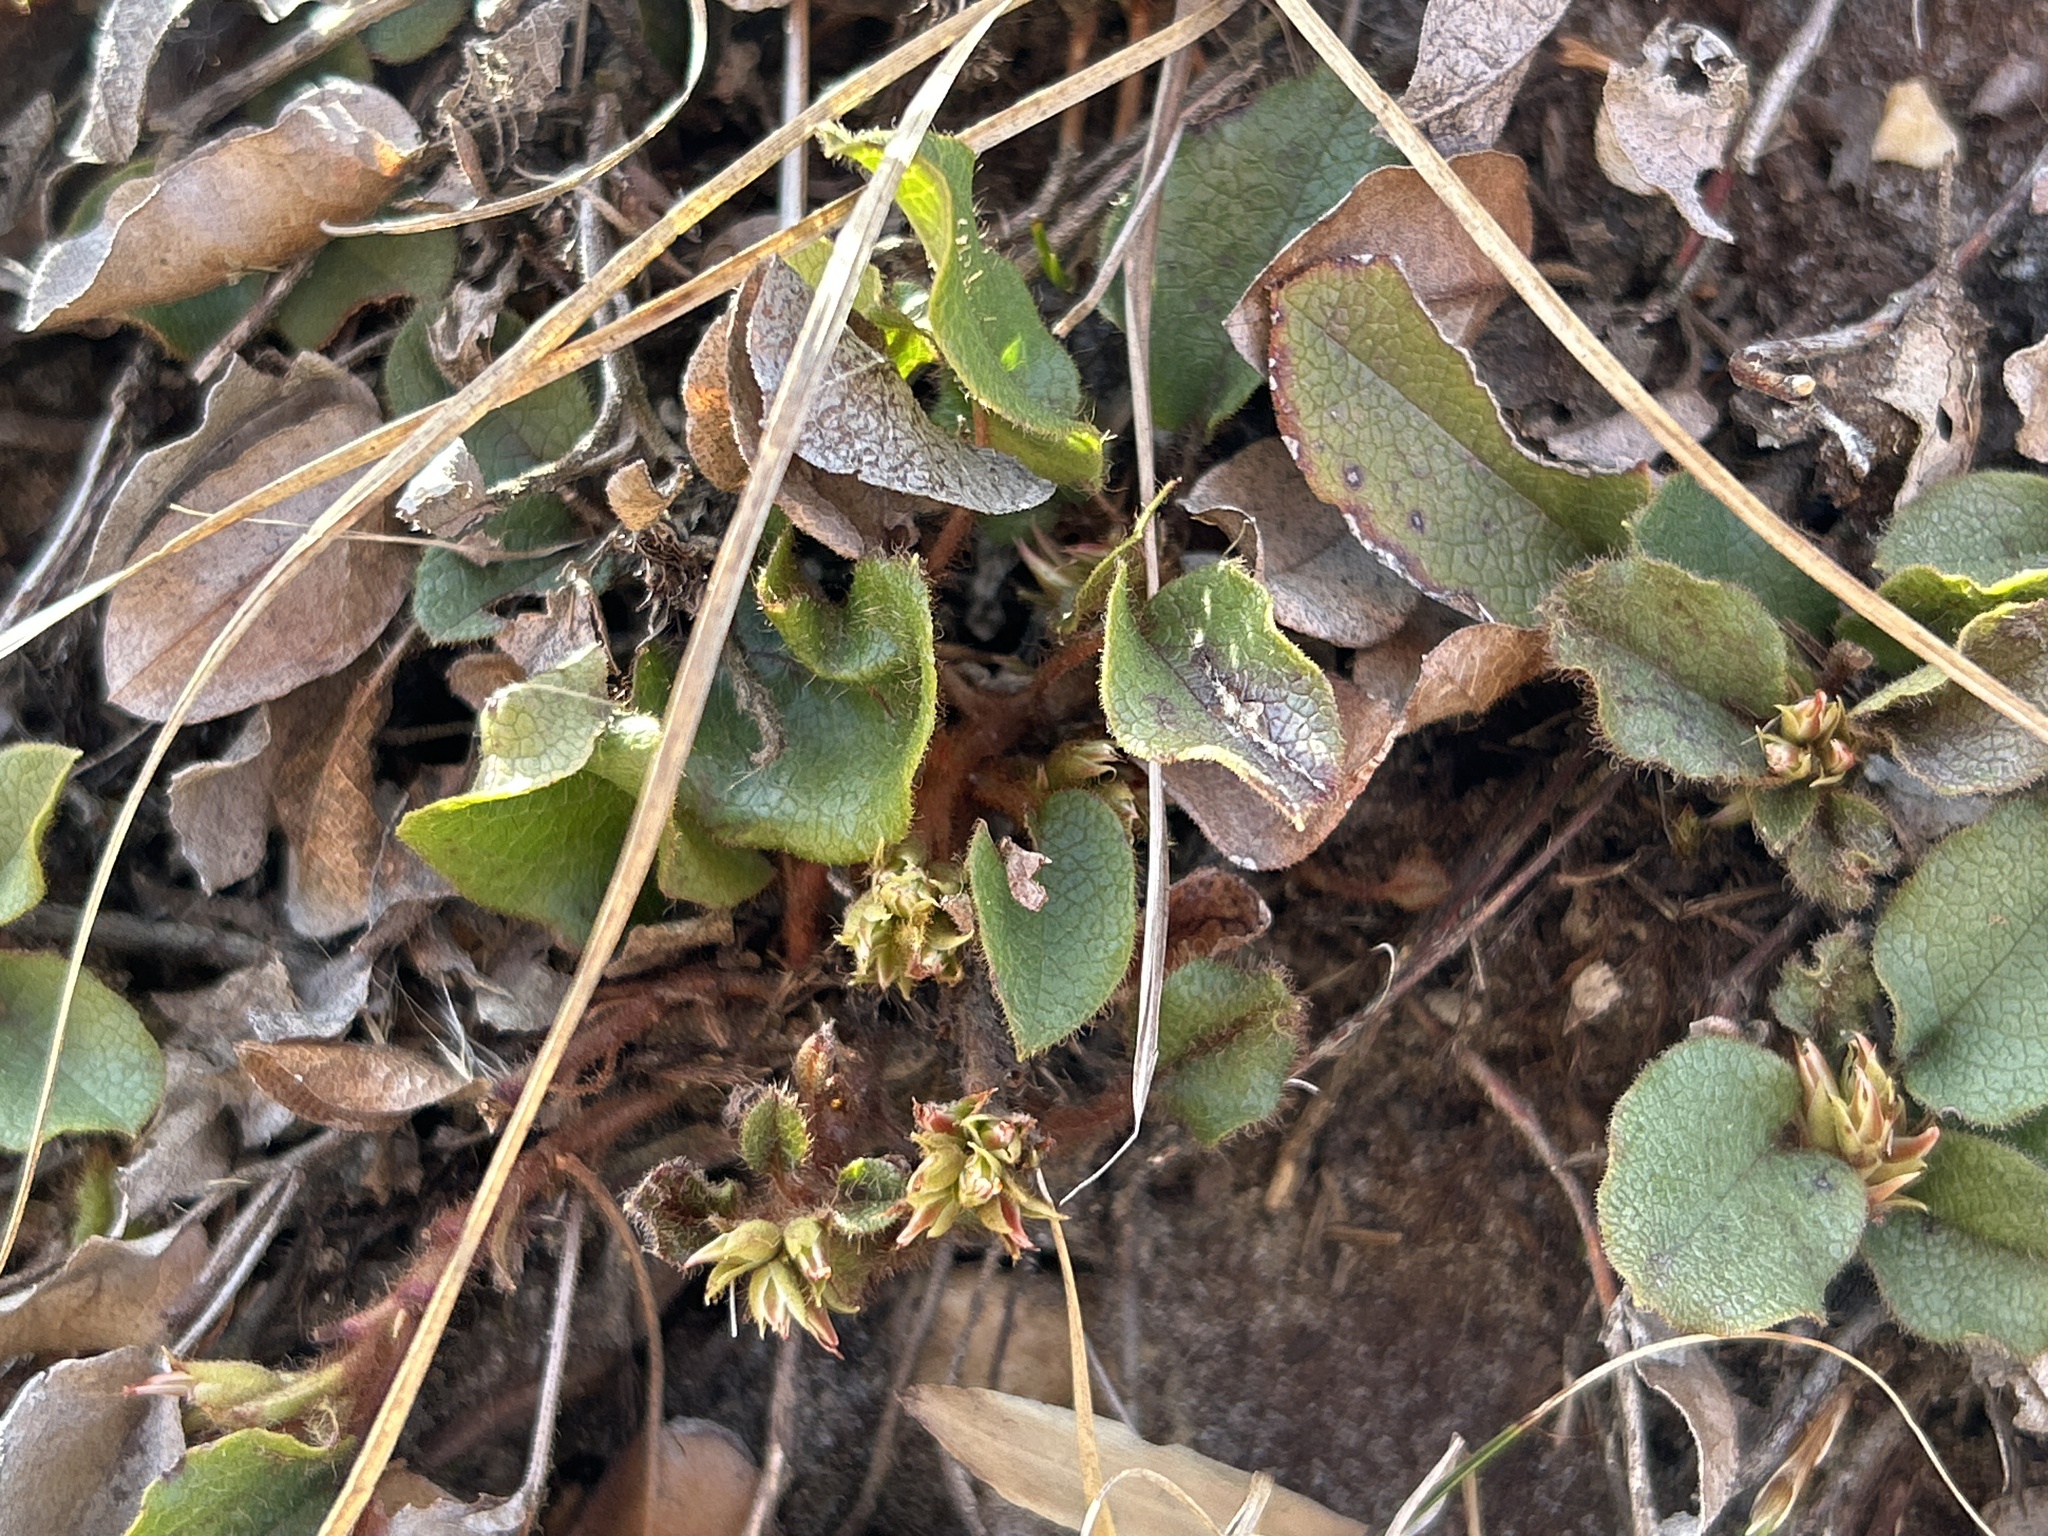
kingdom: Plantae
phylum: Tracheophyta
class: Magnoliopsida
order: Ericales
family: Ericaceae
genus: Epigaea
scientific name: Epigaea repens
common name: Gravelroot
